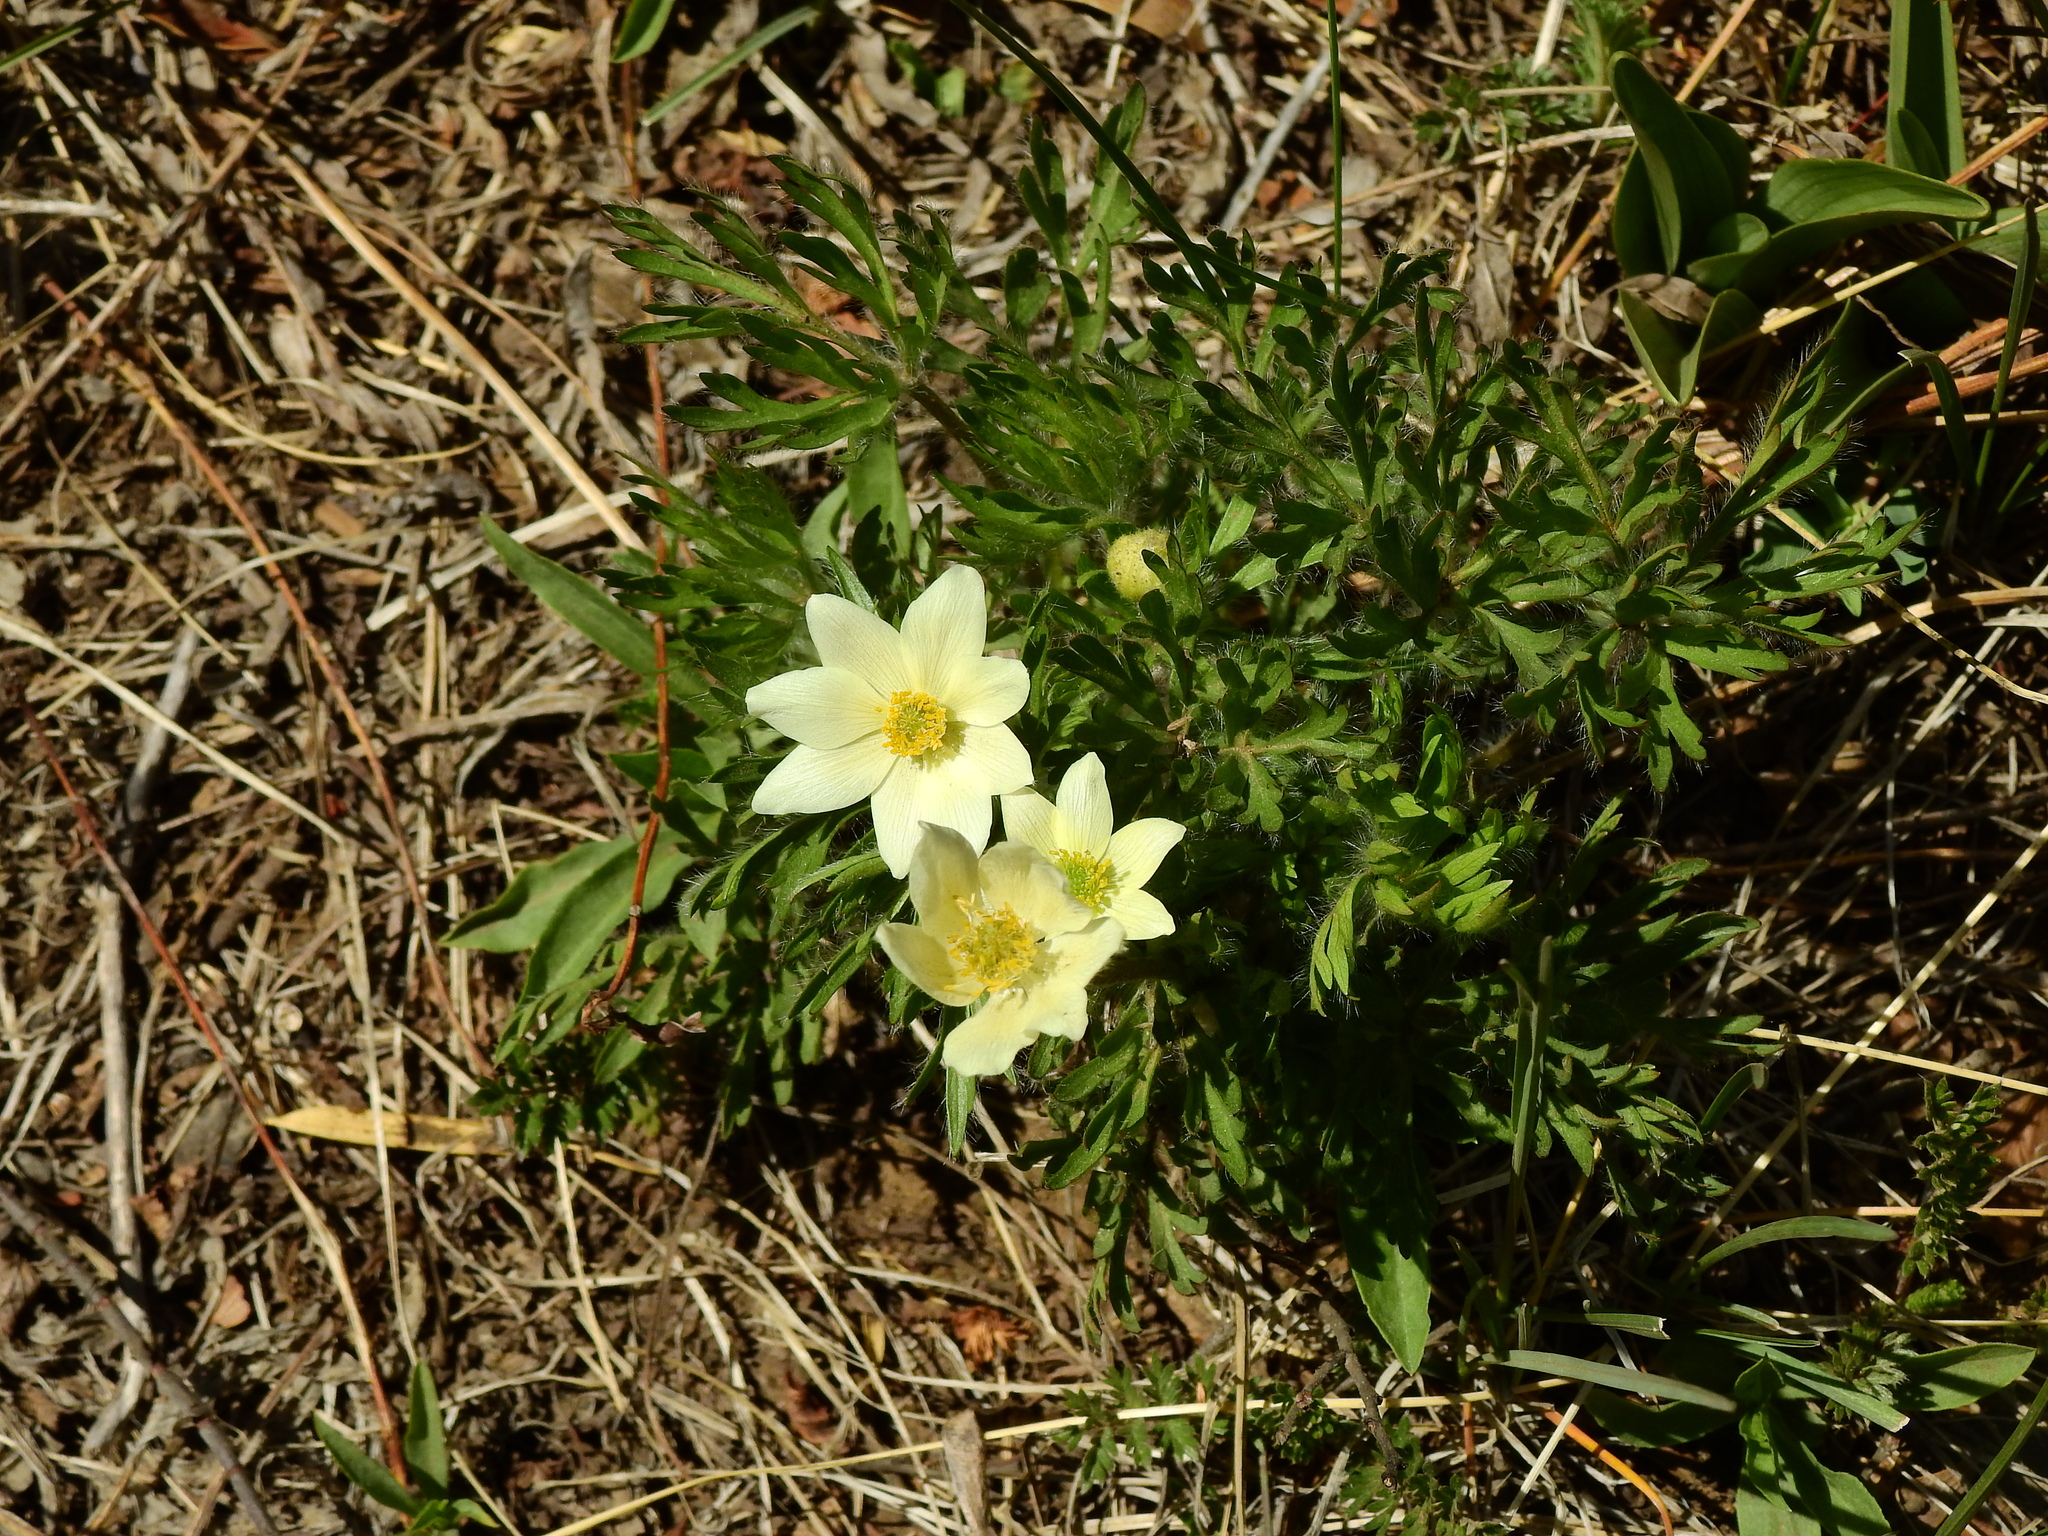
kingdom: Plantae
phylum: Tracheophyta
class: Magnoliopsida
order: Ranunculales
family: Ranunculaceae
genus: Anemone
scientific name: Anemone multifida
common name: Bird's-foot anemone
